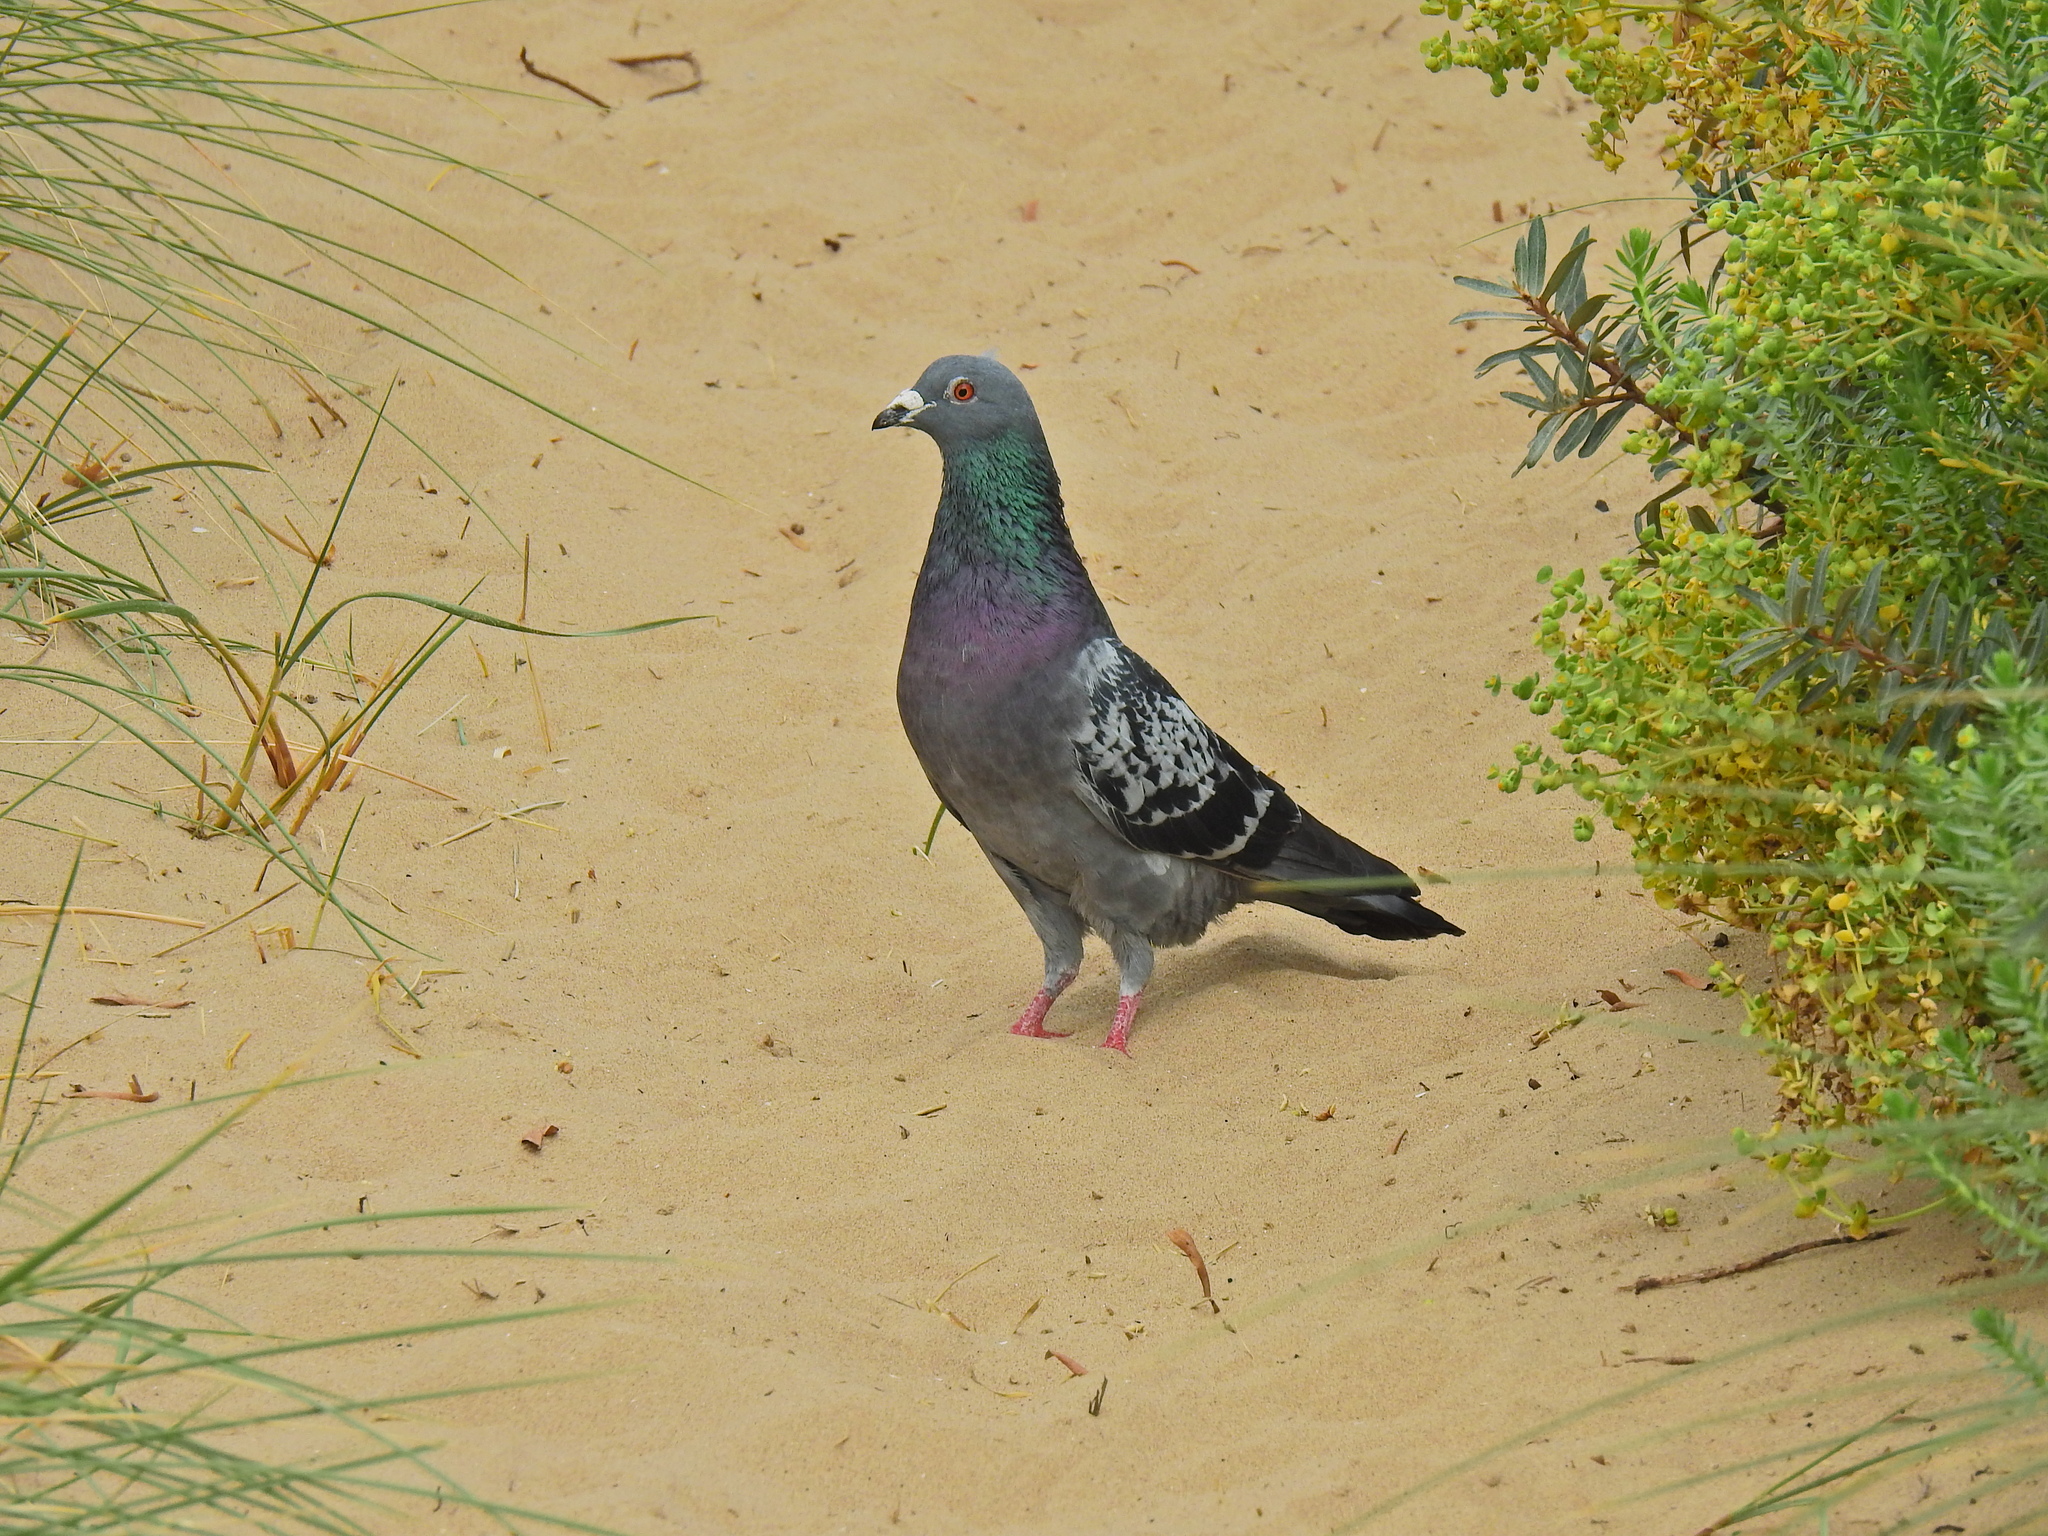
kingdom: Animalia
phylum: Chordata
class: Aves
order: Columbiformes
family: Columbidae
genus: Columba
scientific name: Columba livia
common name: Rock pigeon
